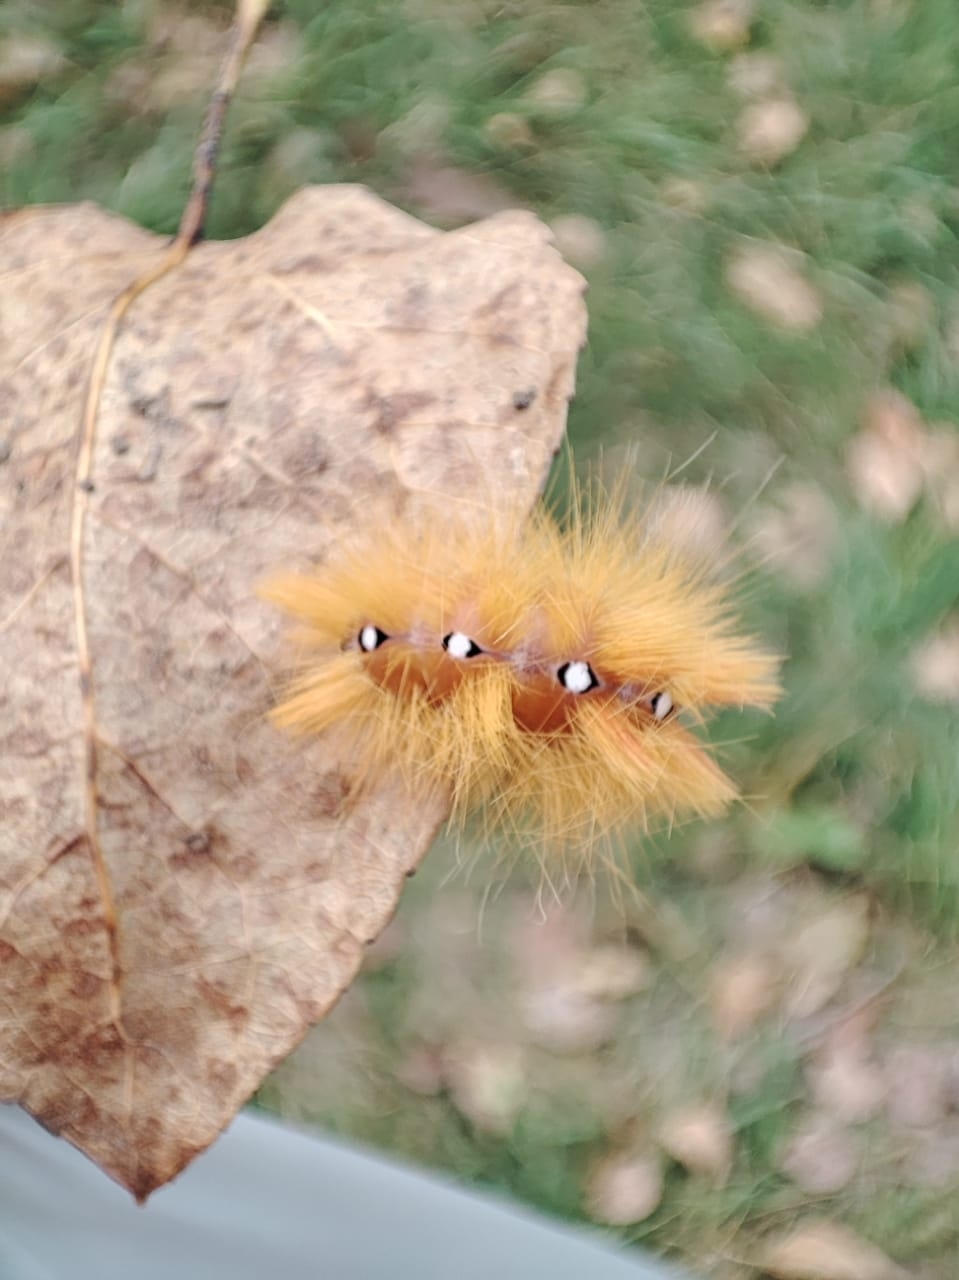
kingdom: Animalia
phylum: Arthropoda
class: Insecta
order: Lepidoptera
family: Noctuidae
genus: Acronicta
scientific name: Acronicta aceris
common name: Sycamore
